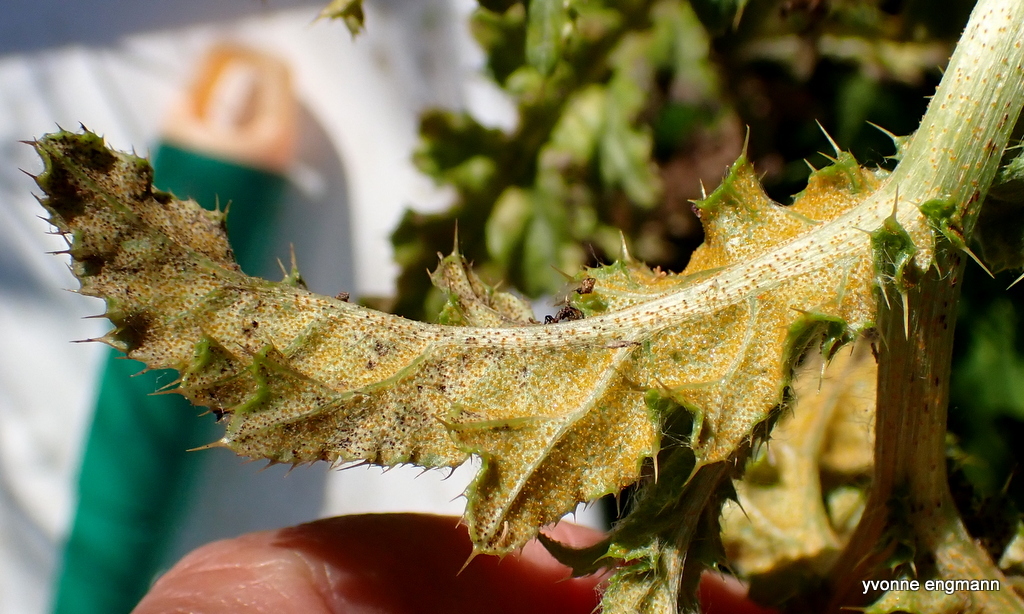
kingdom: Fungi
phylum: Basidiomycota
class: Pucciniomycetes
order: Pucciniales
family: Pucciniaceae
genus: Puccinia
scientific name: Puccinia suaveolens
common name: Thistle rust
